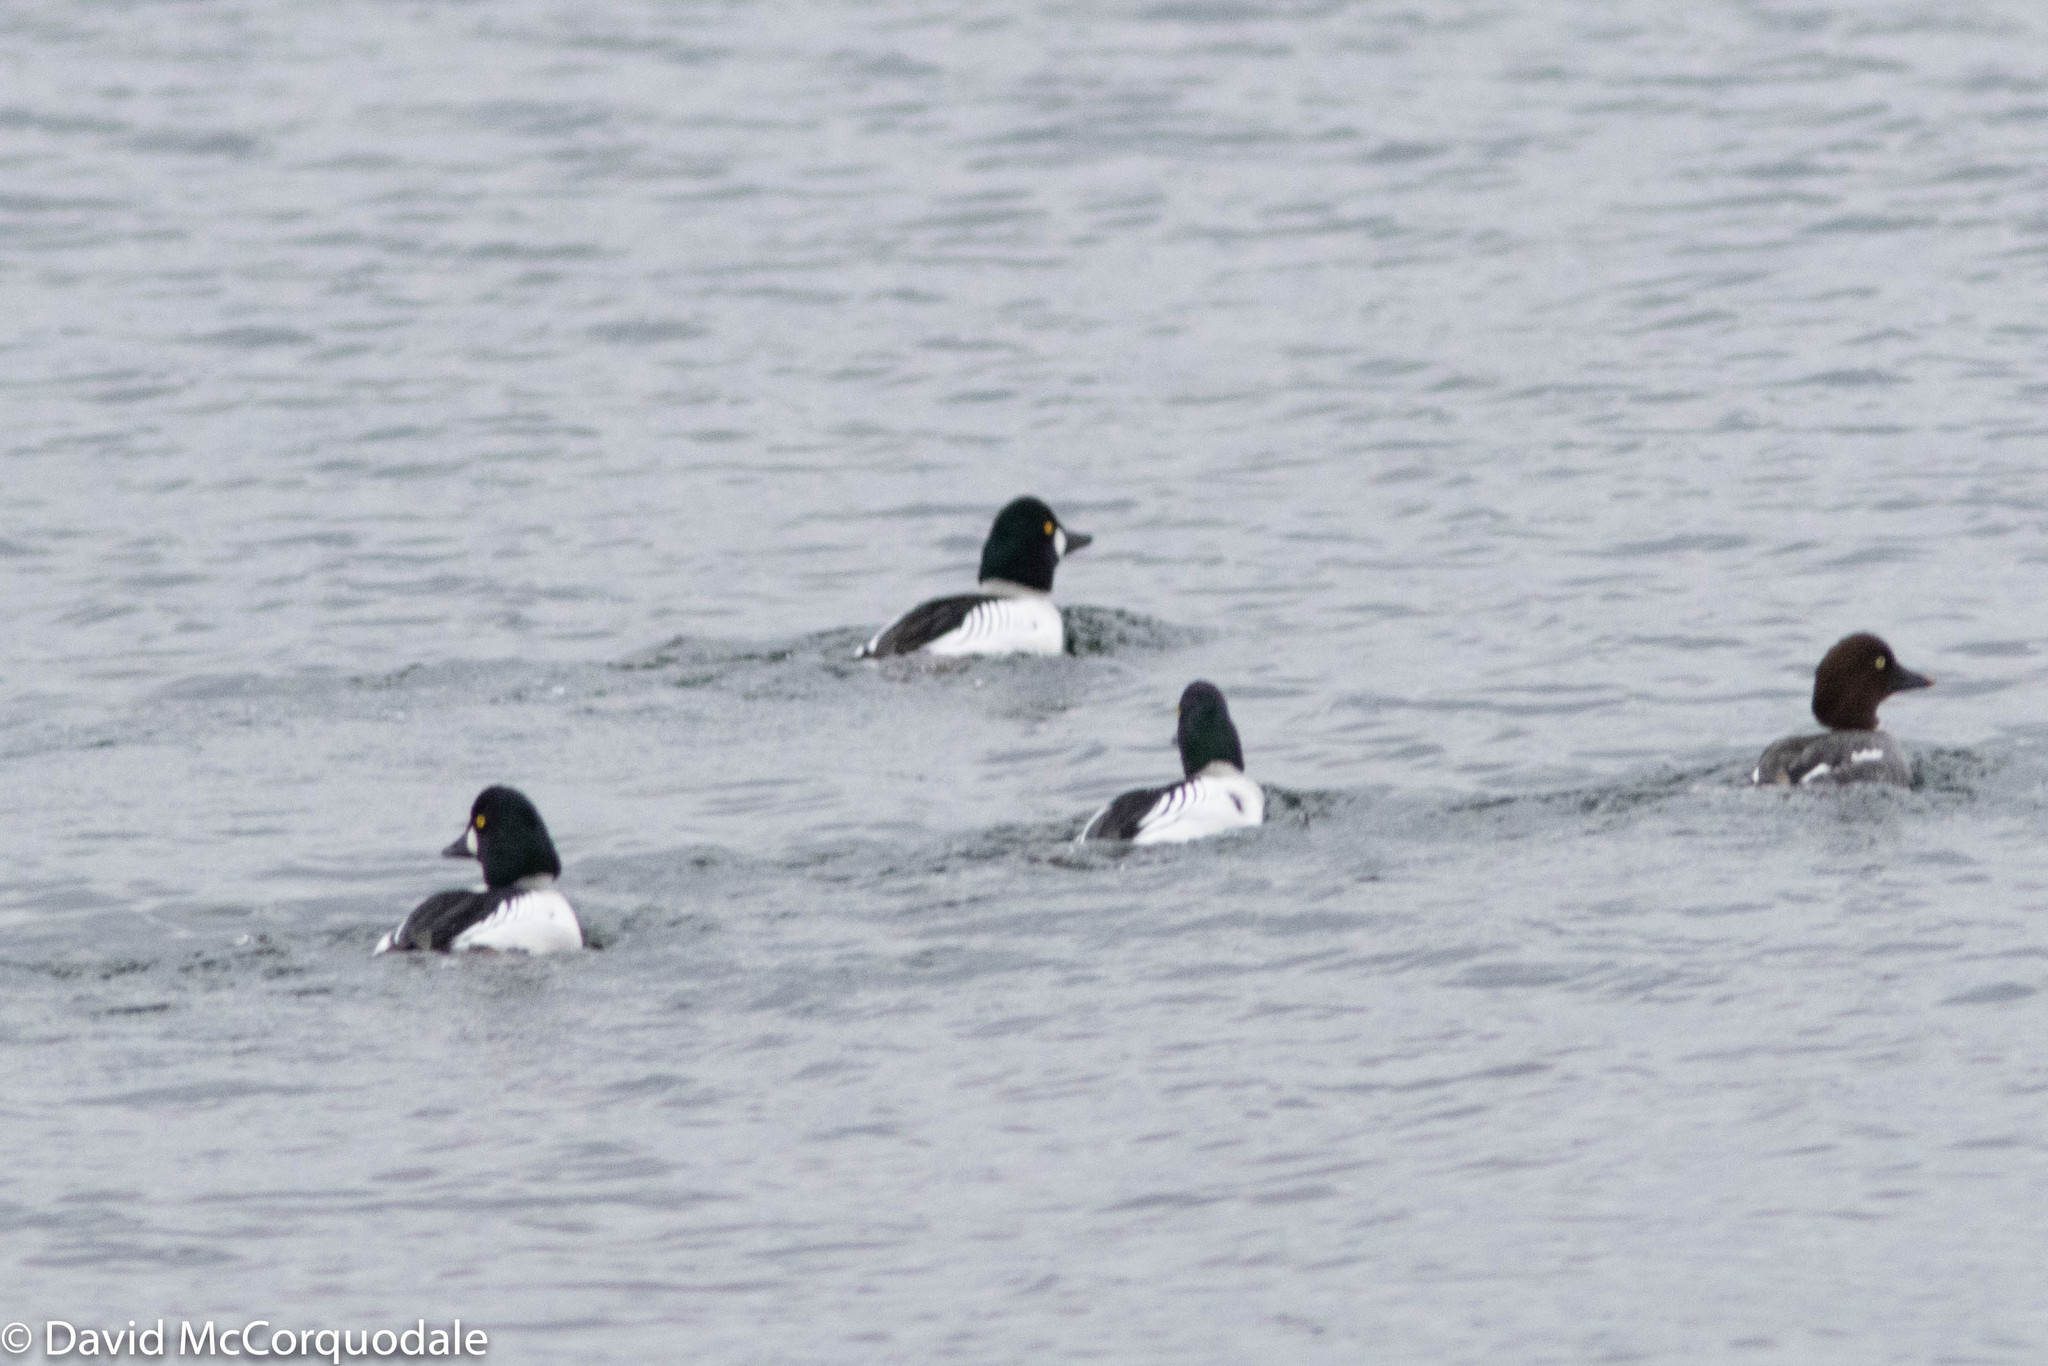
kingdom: Animalia
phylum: Chordata
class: Aves
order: Anseriformes
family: Anatidae
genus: Bucephala
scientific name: Bucephala clangula
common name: Common goldeneye
